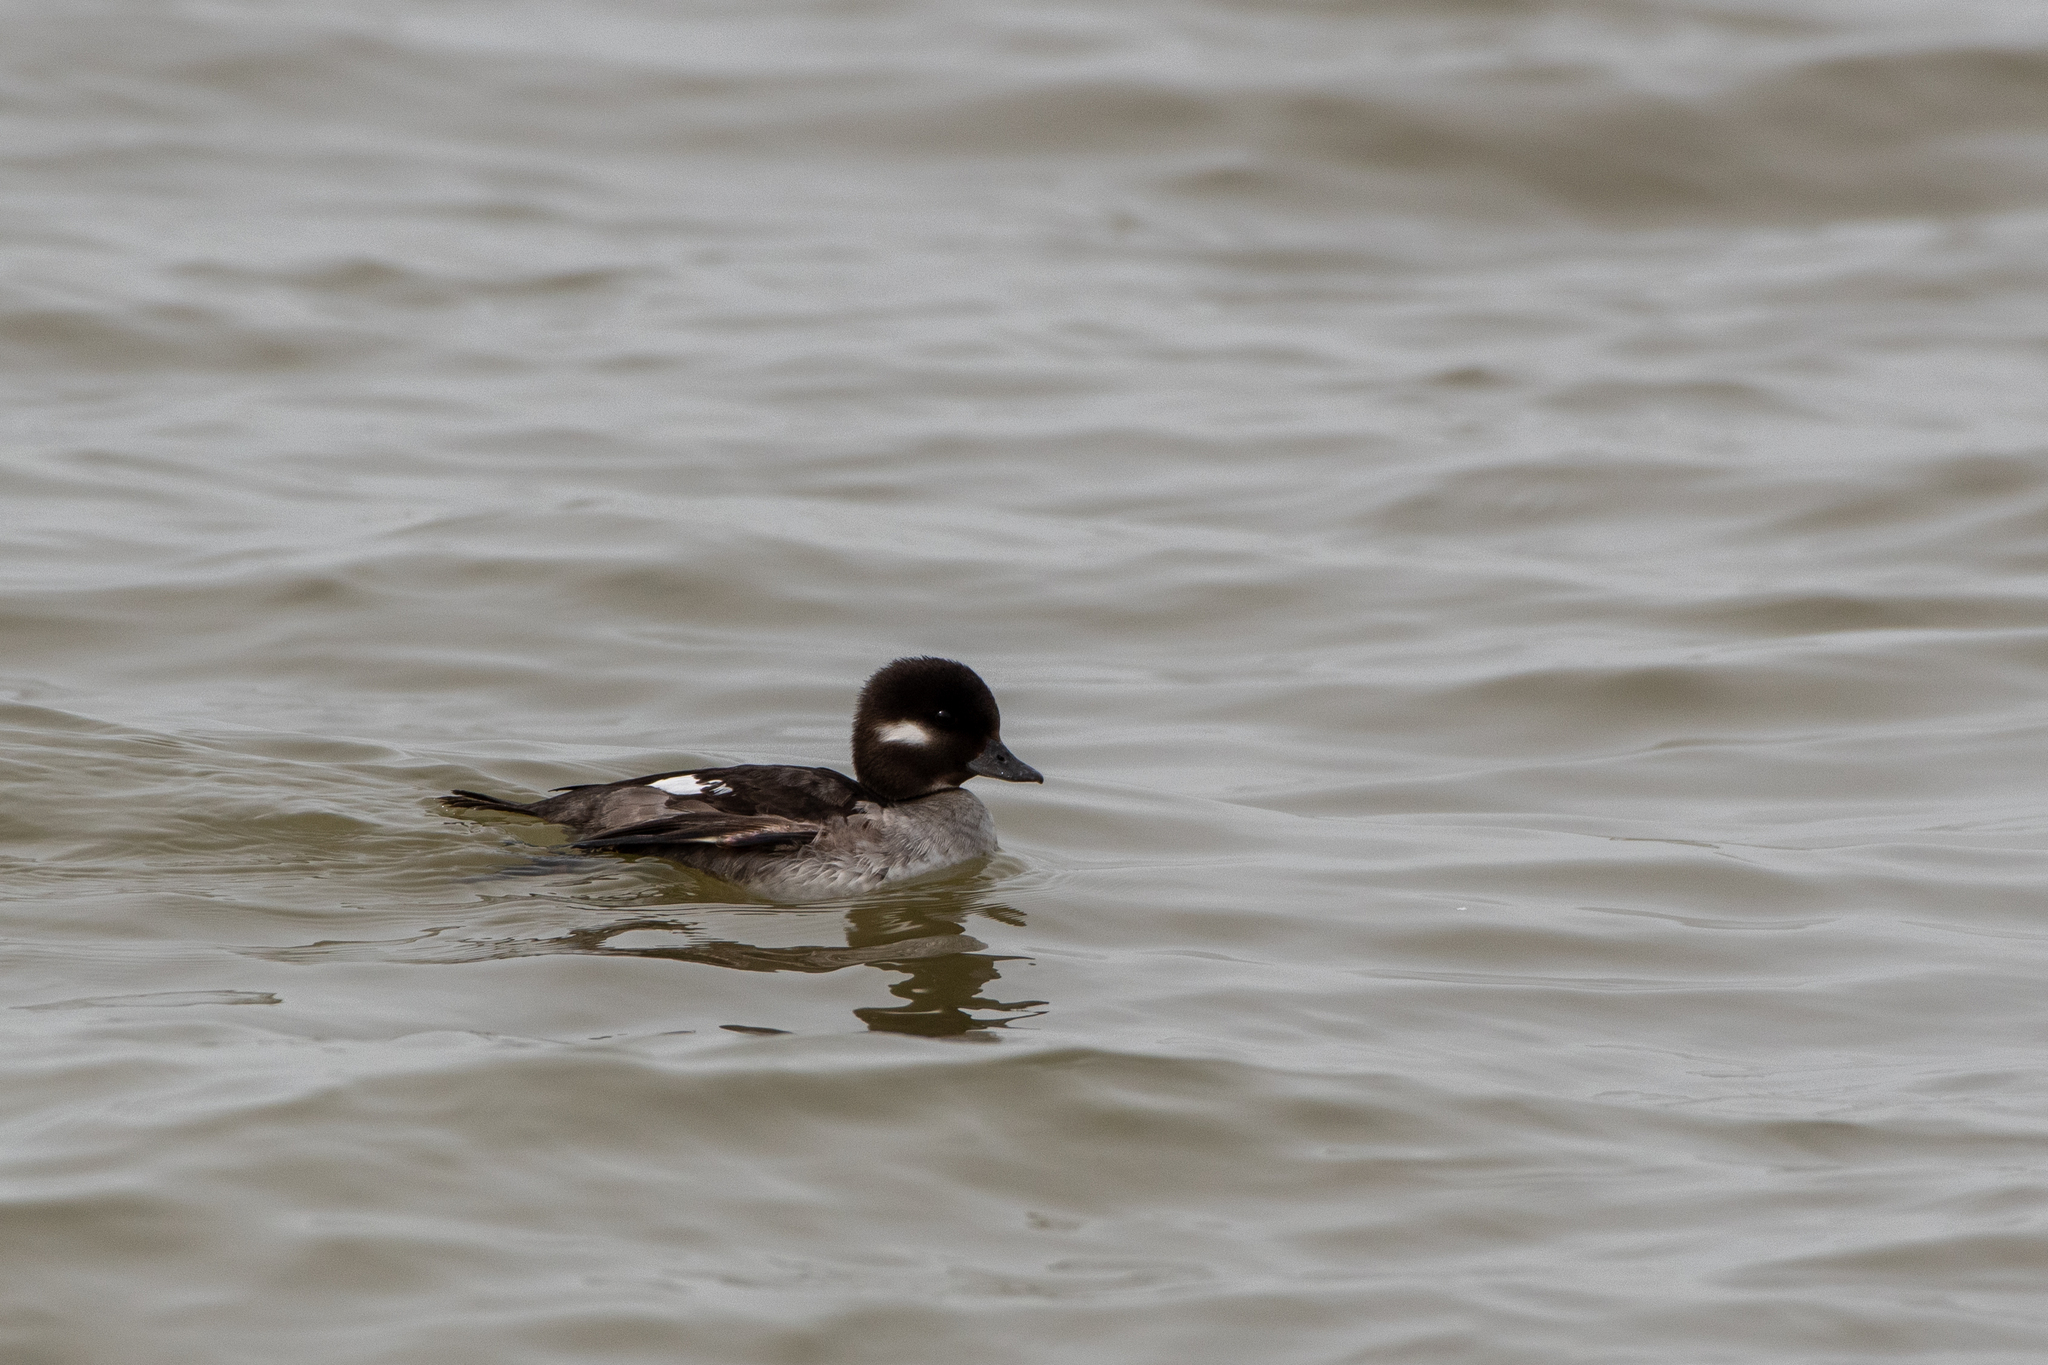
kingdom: Animalia
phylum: Chordata
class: Aves
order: Anseriformes
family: Anatidae
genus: Bucephala
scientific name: Bucephala albeola
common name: Bufflehead
